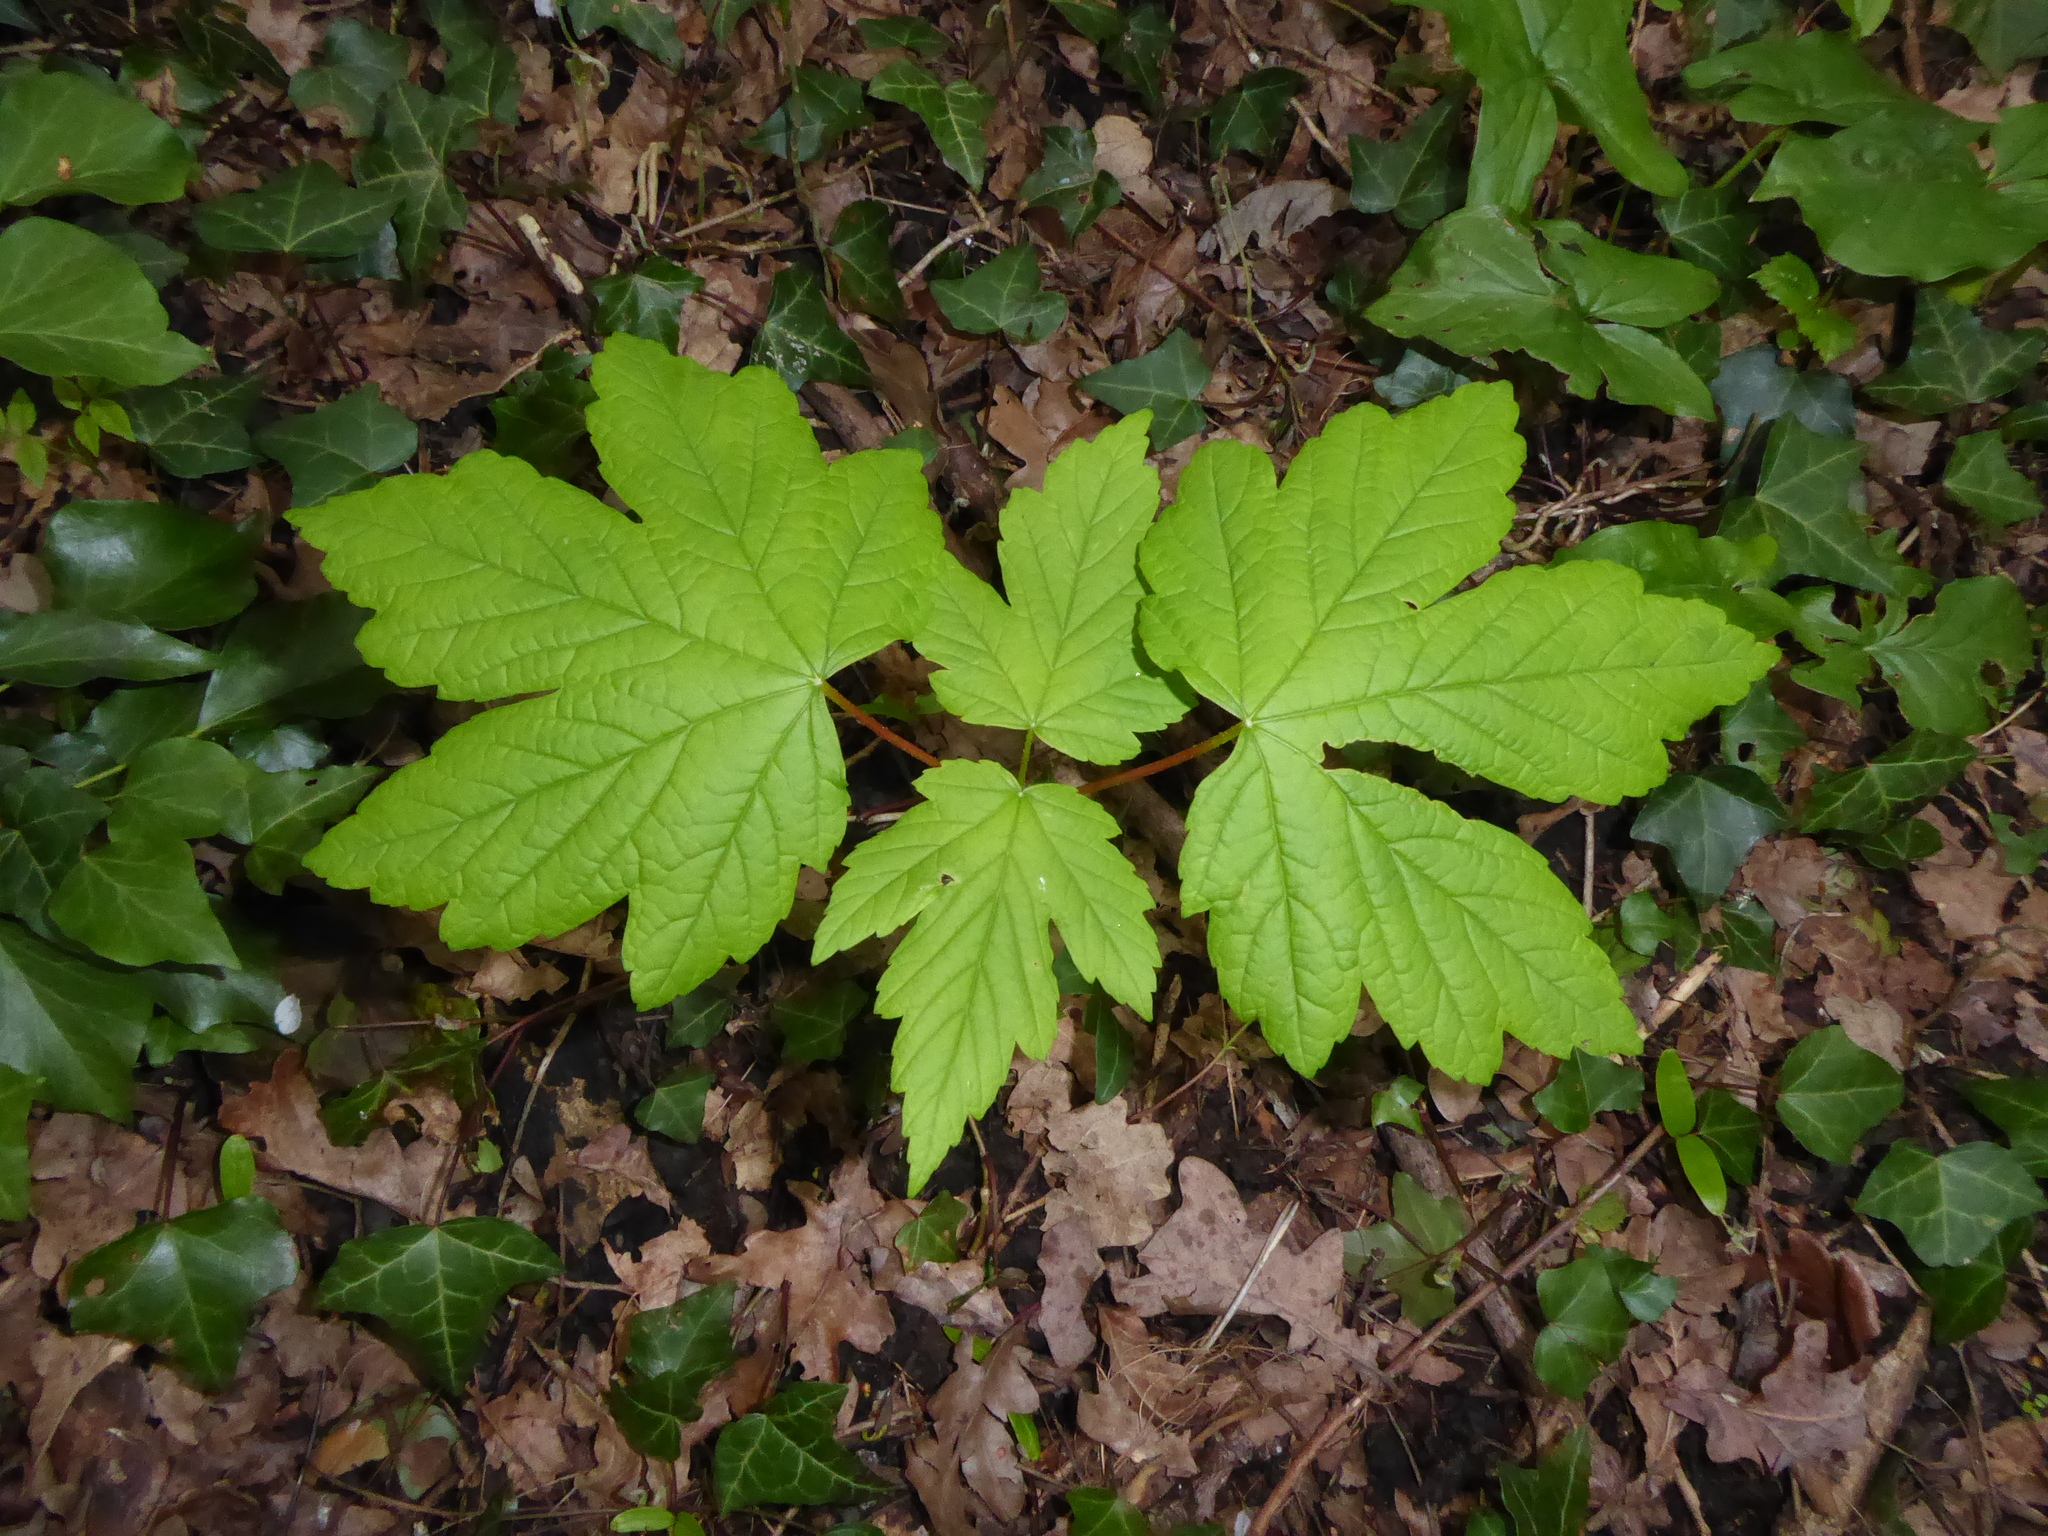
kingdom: Plantae
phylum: Tracheophyta
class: Magnoliopsida
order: Sapindales
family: Sapindaceae
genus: Acer
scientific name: Acer pseudoplatanus
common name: Sycamore
